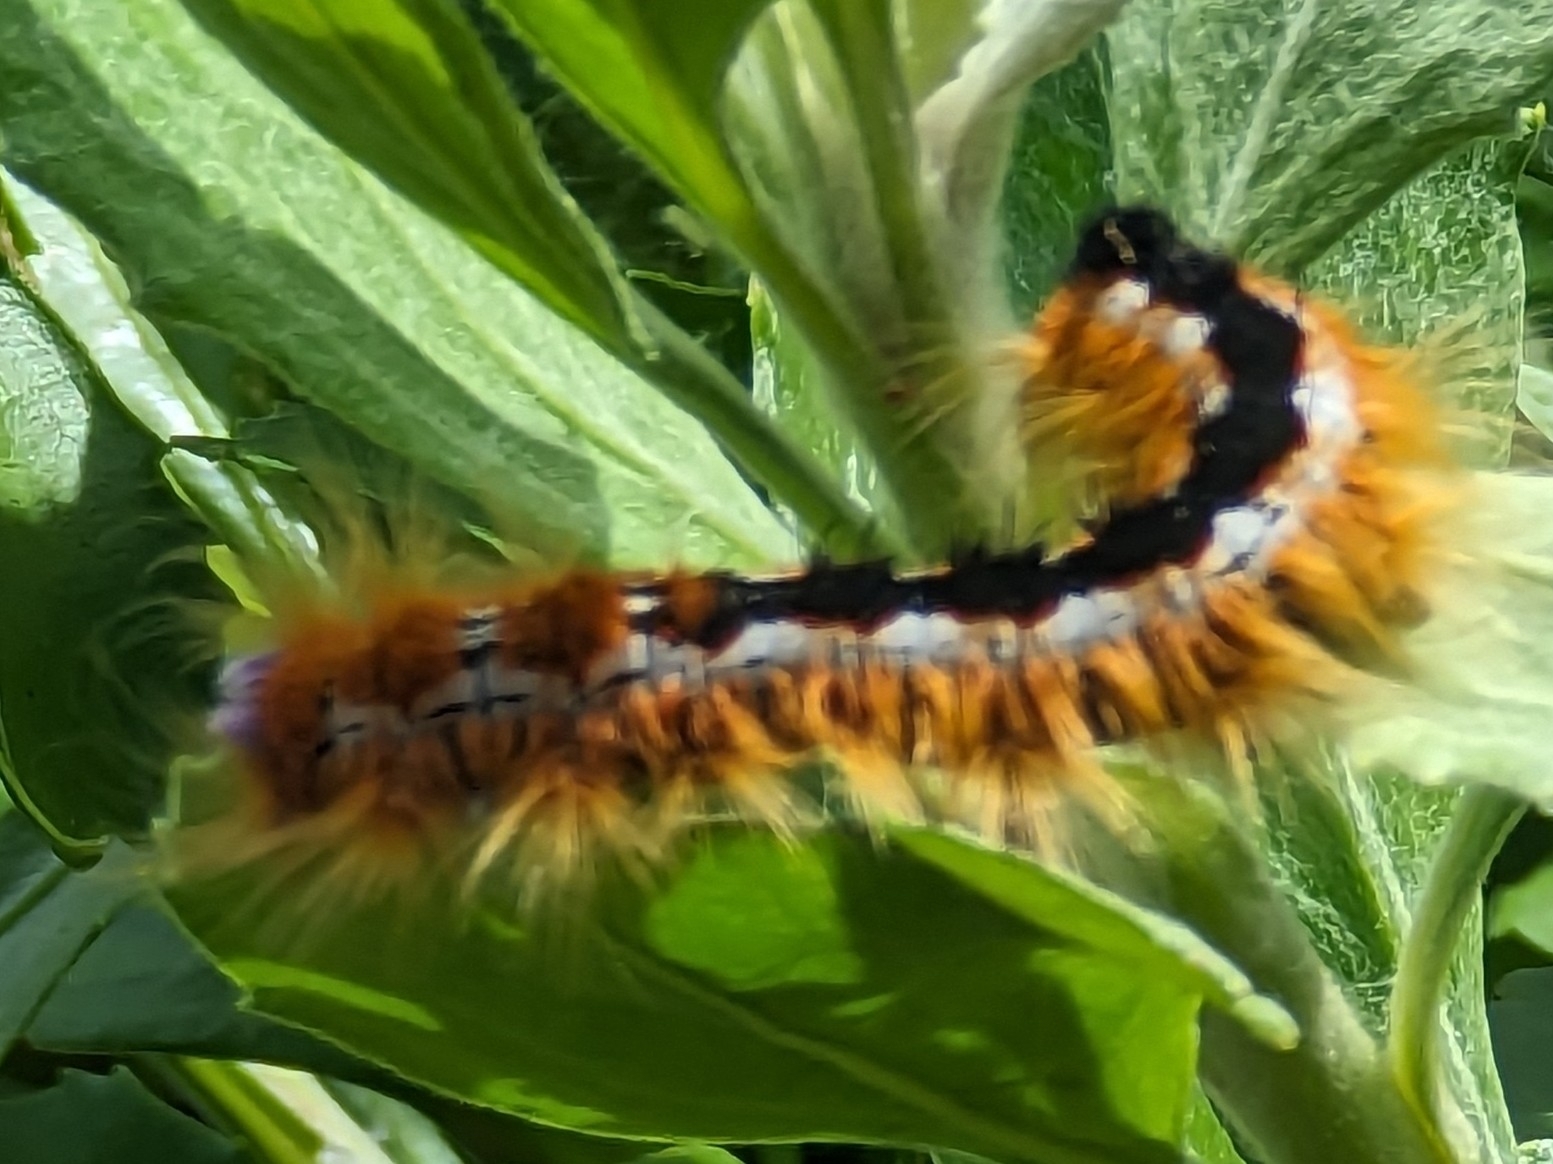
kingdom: Animalia
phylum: Arthropoda
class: Insecta
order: Lepidoptera
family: Lasiocampidae
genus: Eutricha
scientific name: Eutricha capensis
